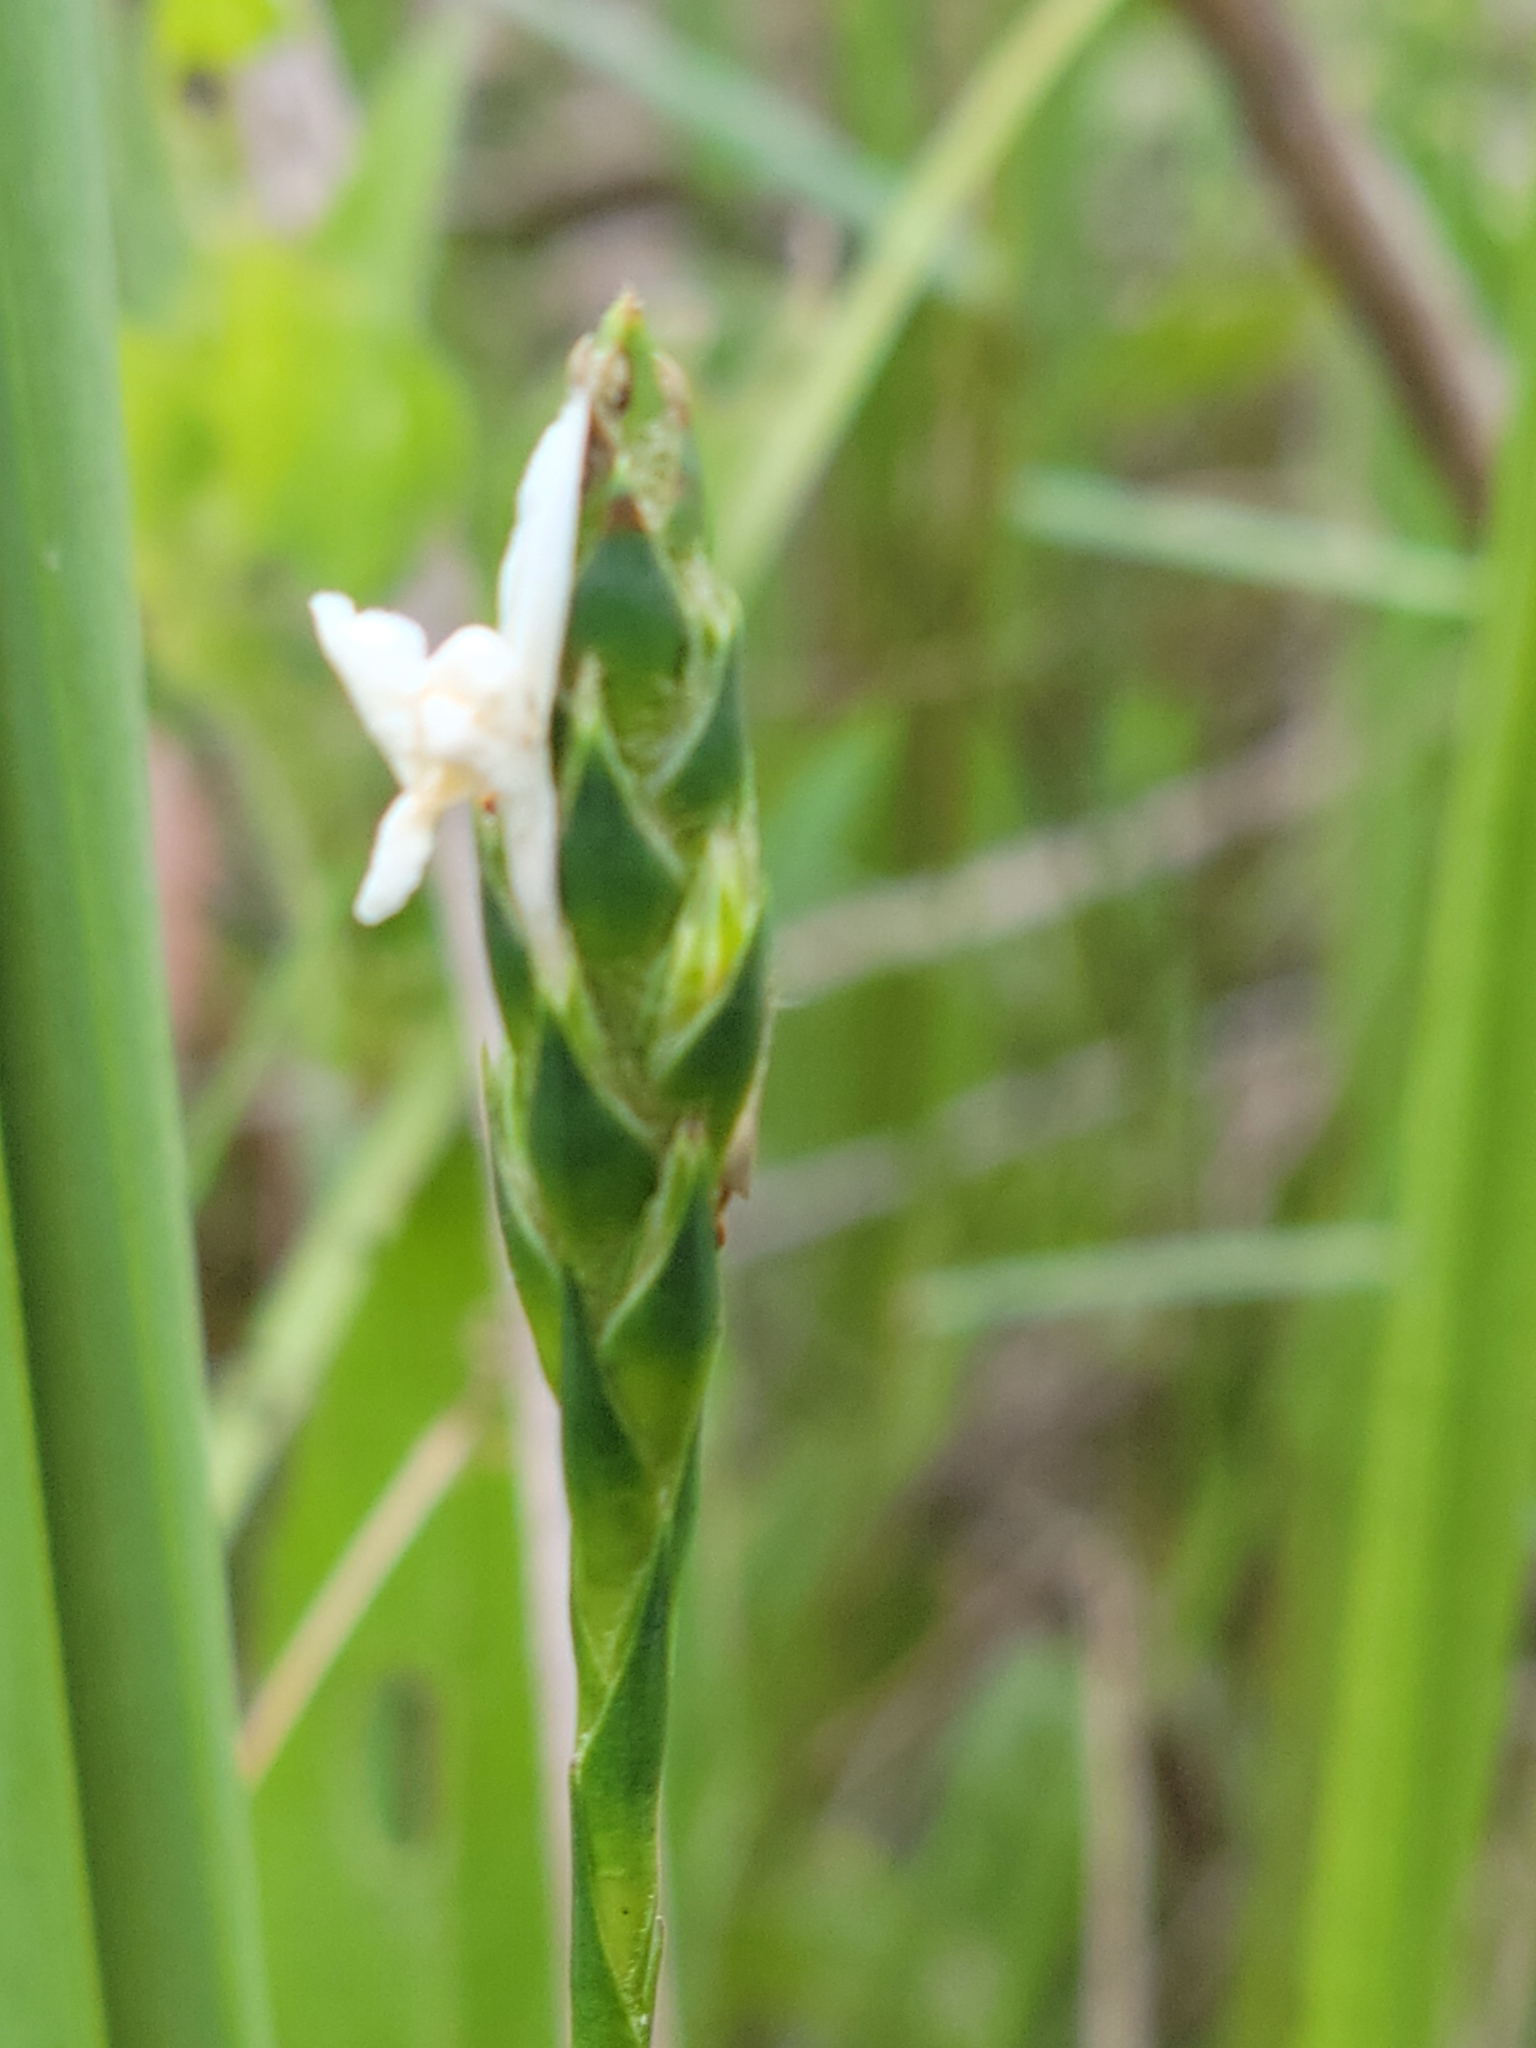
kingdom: Plantae
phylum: Tracheophyta
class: Magnoliopsida
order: Lamiales
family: Acanthaceae
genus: Elytraria
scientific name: Elytraria caroliniensis
